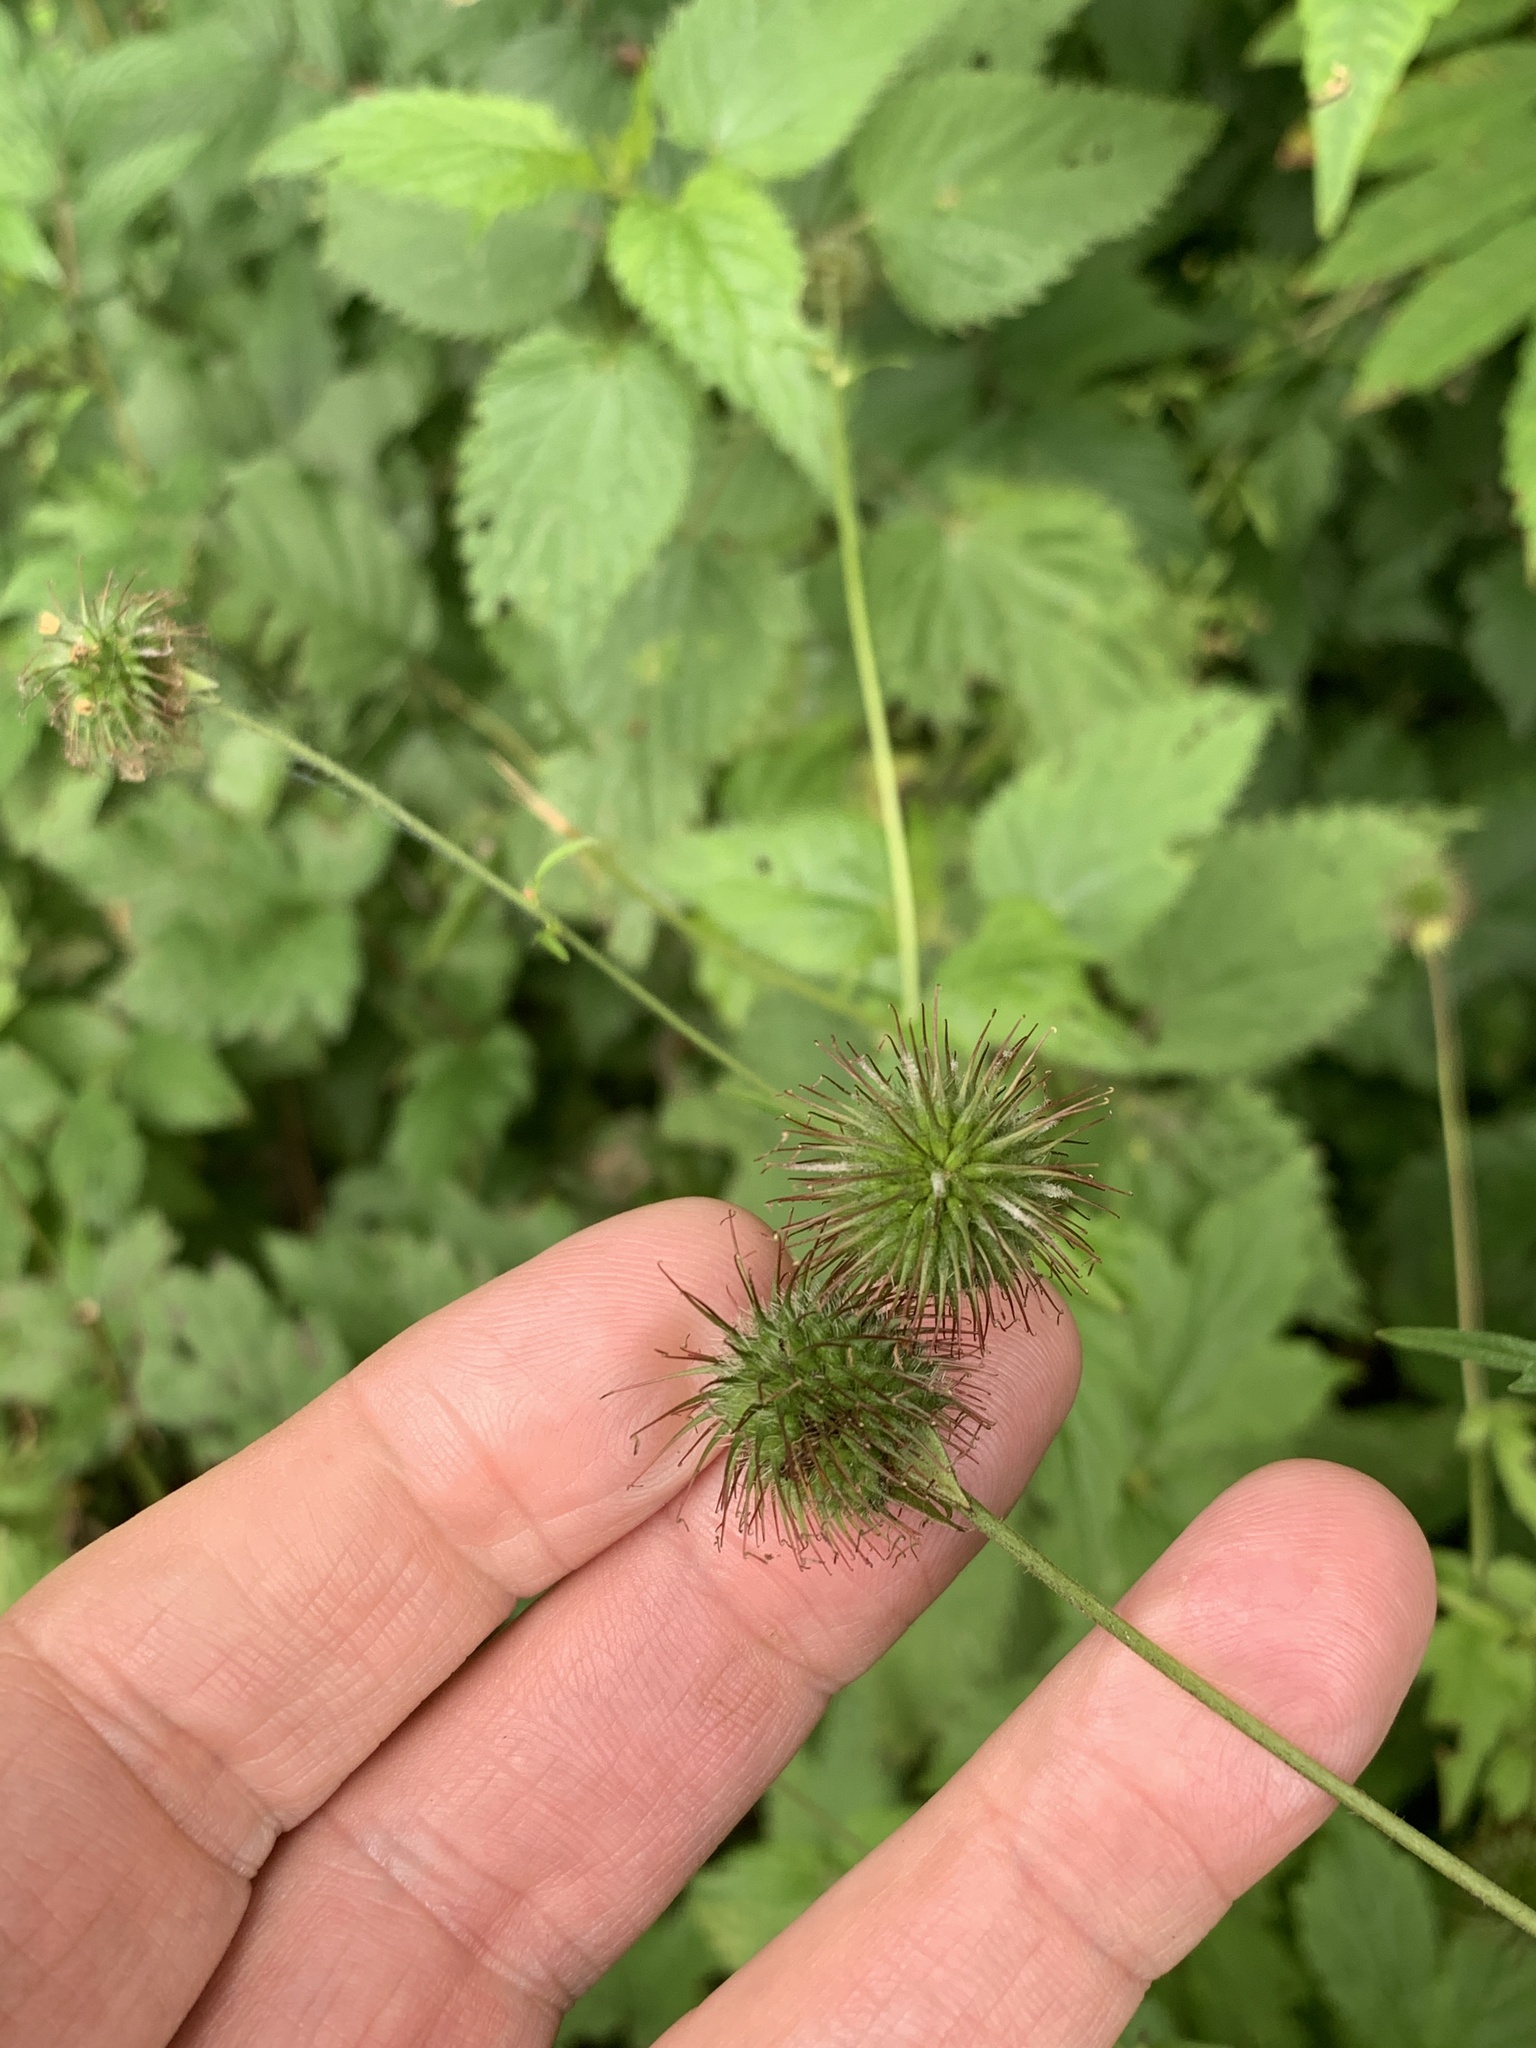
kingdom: Plantae
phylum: Tracheophyta
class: Magnoliopsida
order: Rosales
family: Rosaceae
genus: Geum
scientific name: Geum urbanum
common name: Wood avens
